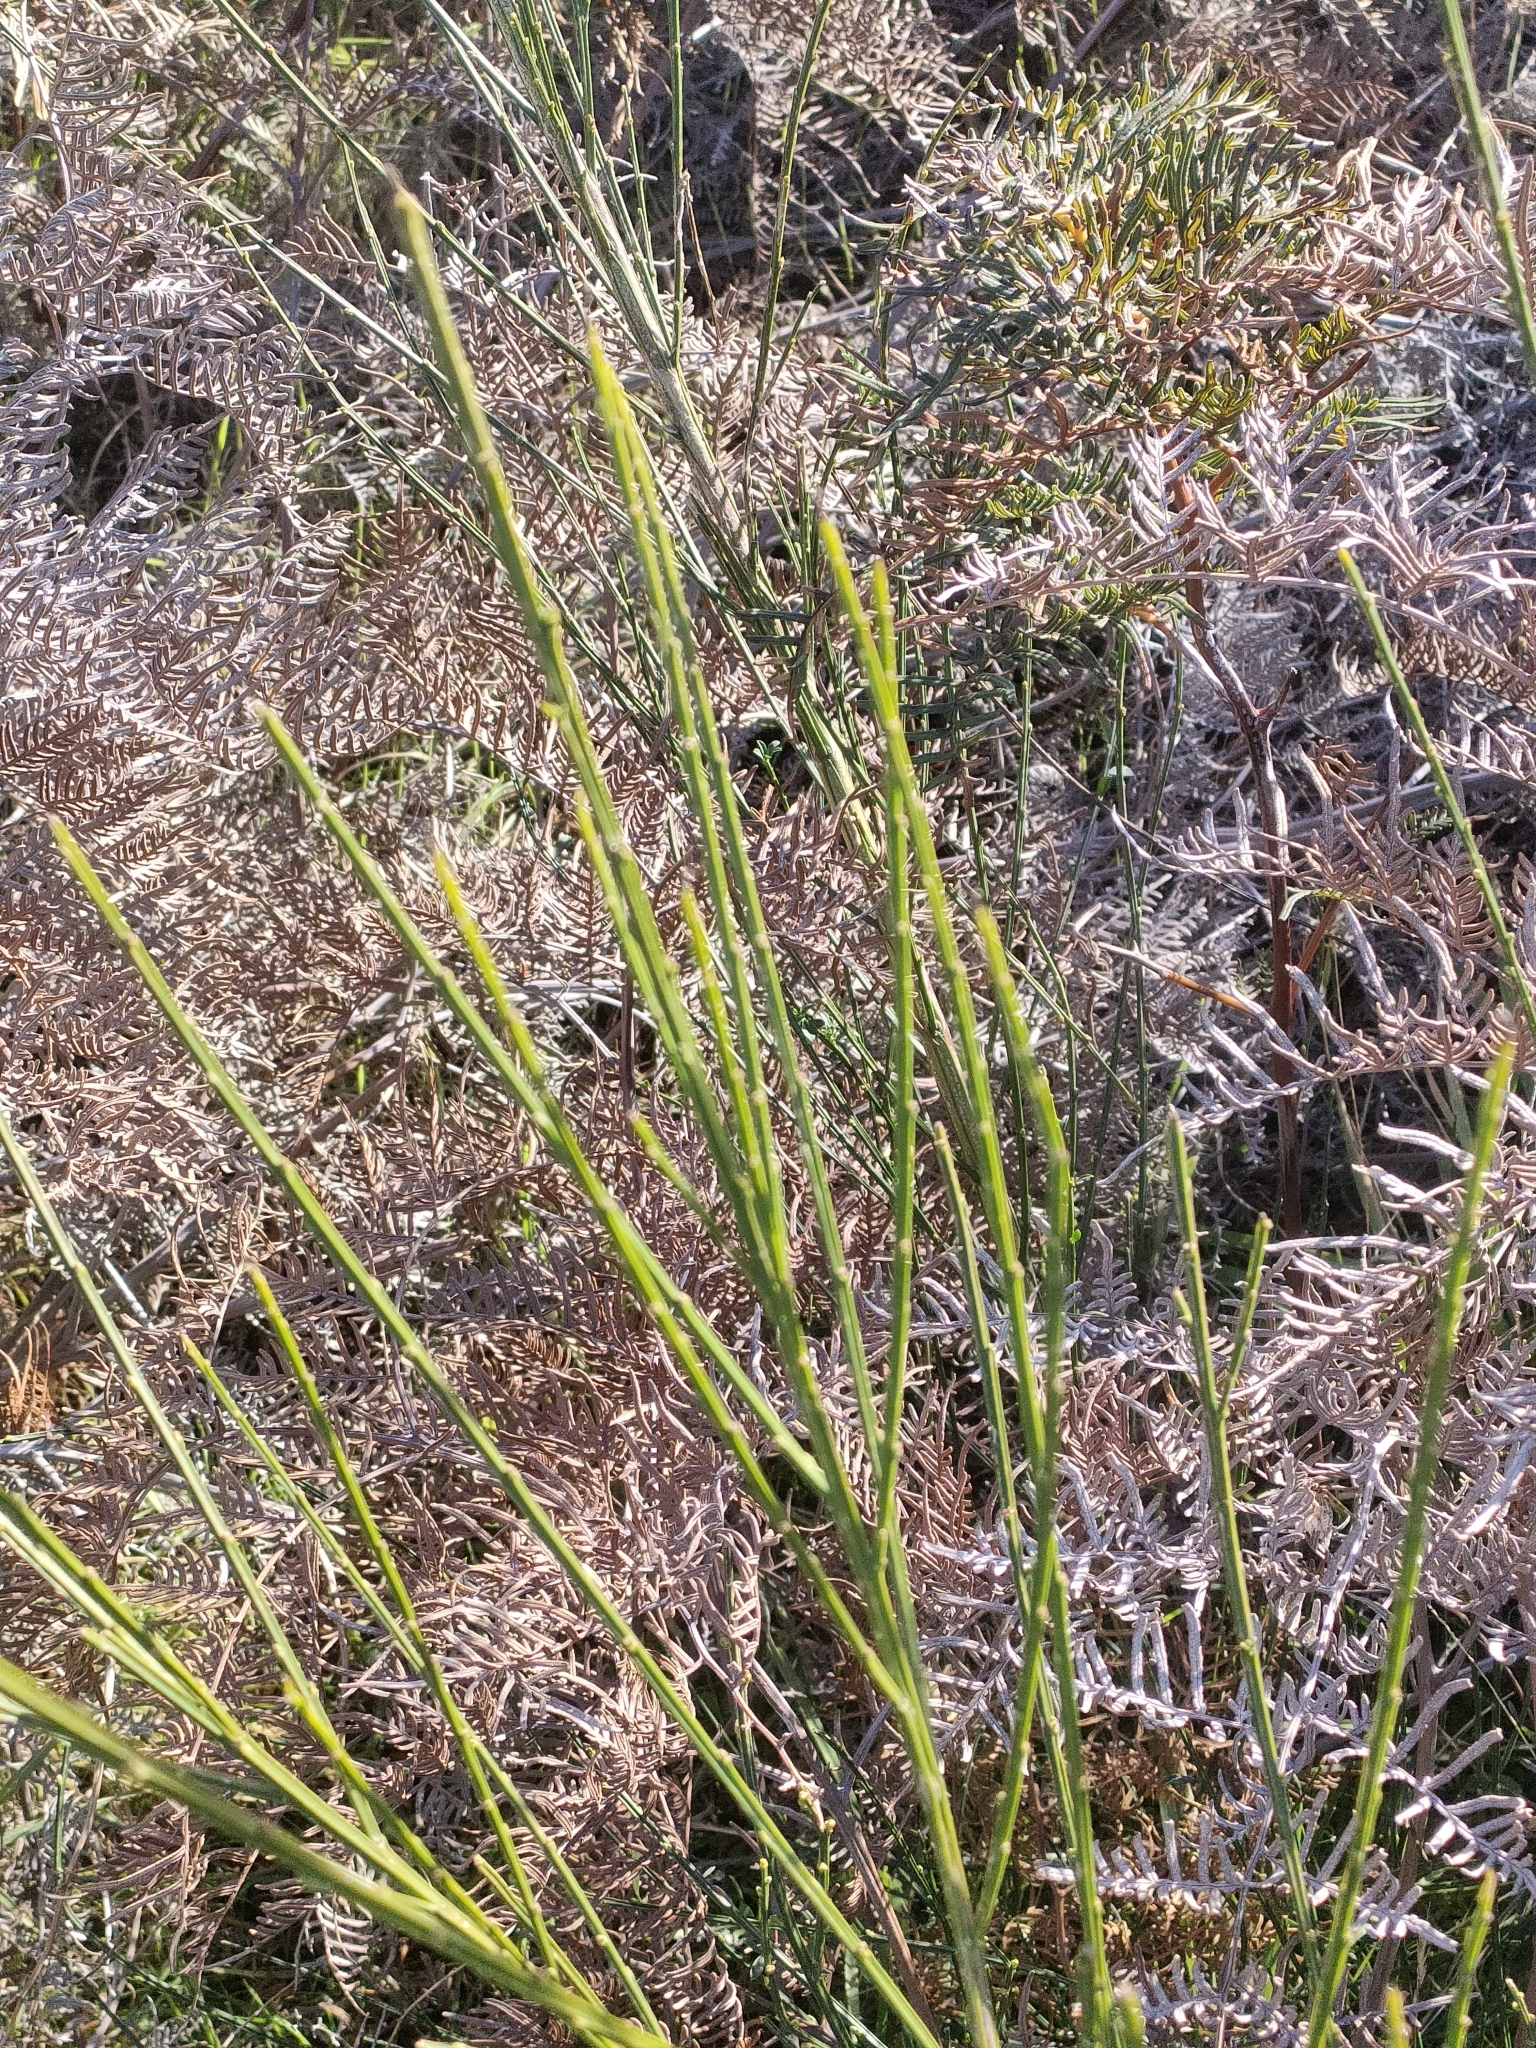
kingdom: Plantae
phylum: Tracheophyta
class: Magnoliopsida
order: Fabales
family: Fabaceae
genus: Cytisus
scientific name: Cytisus scoparius
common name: Scotch broom
